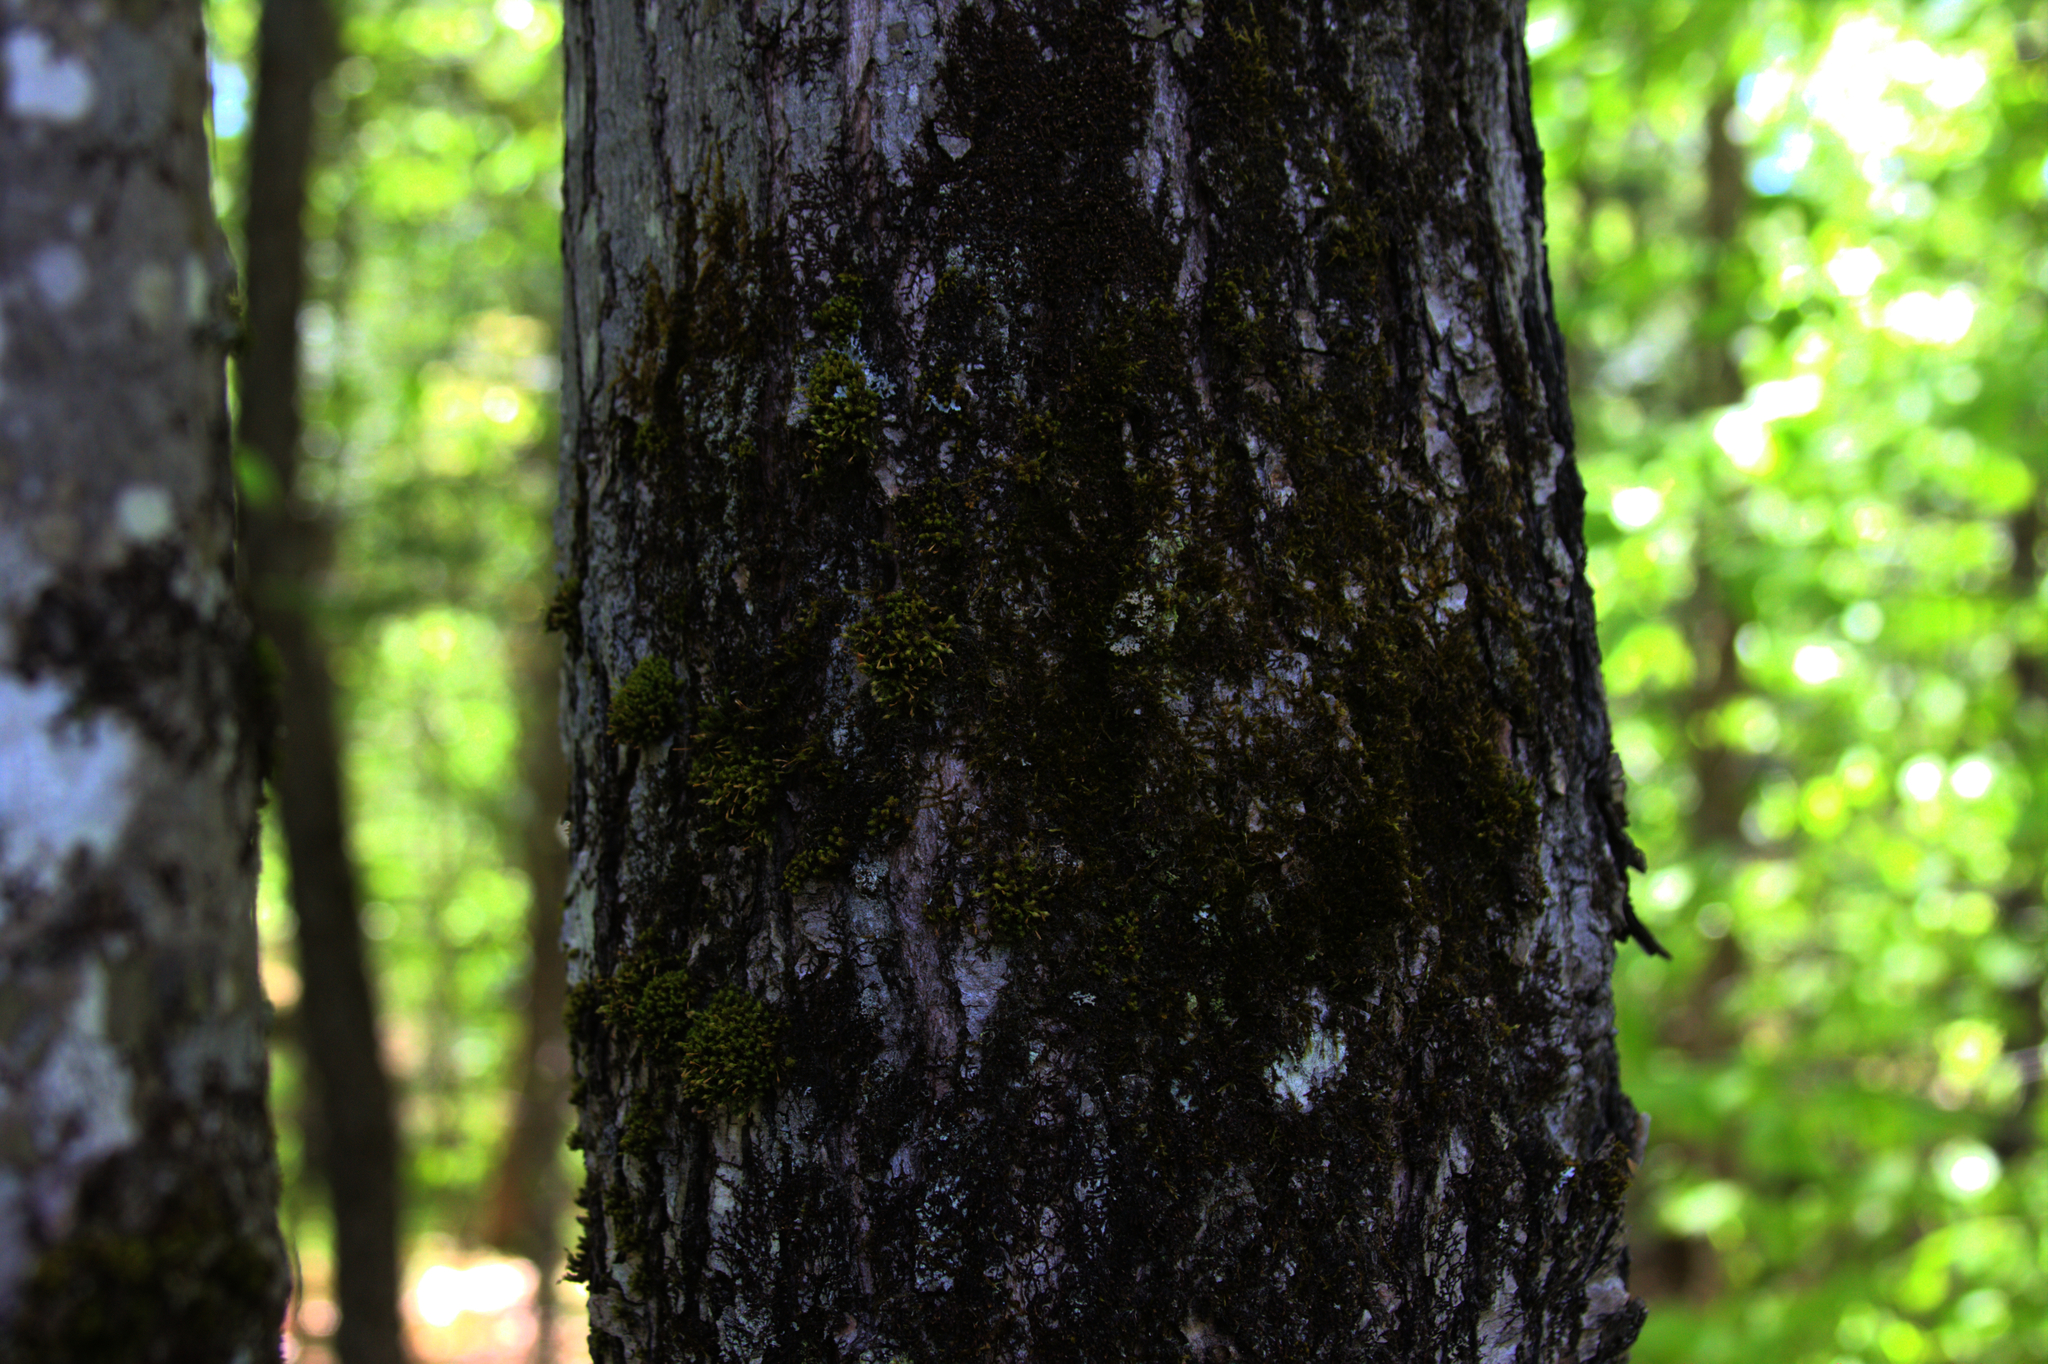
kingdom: Plantae
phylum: Marchantiophyta
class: Jungermanniopsida
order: Porellales
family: Frullaniaceae
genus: Frullania
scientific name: Frullania eboracensis
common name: New york scalewort
